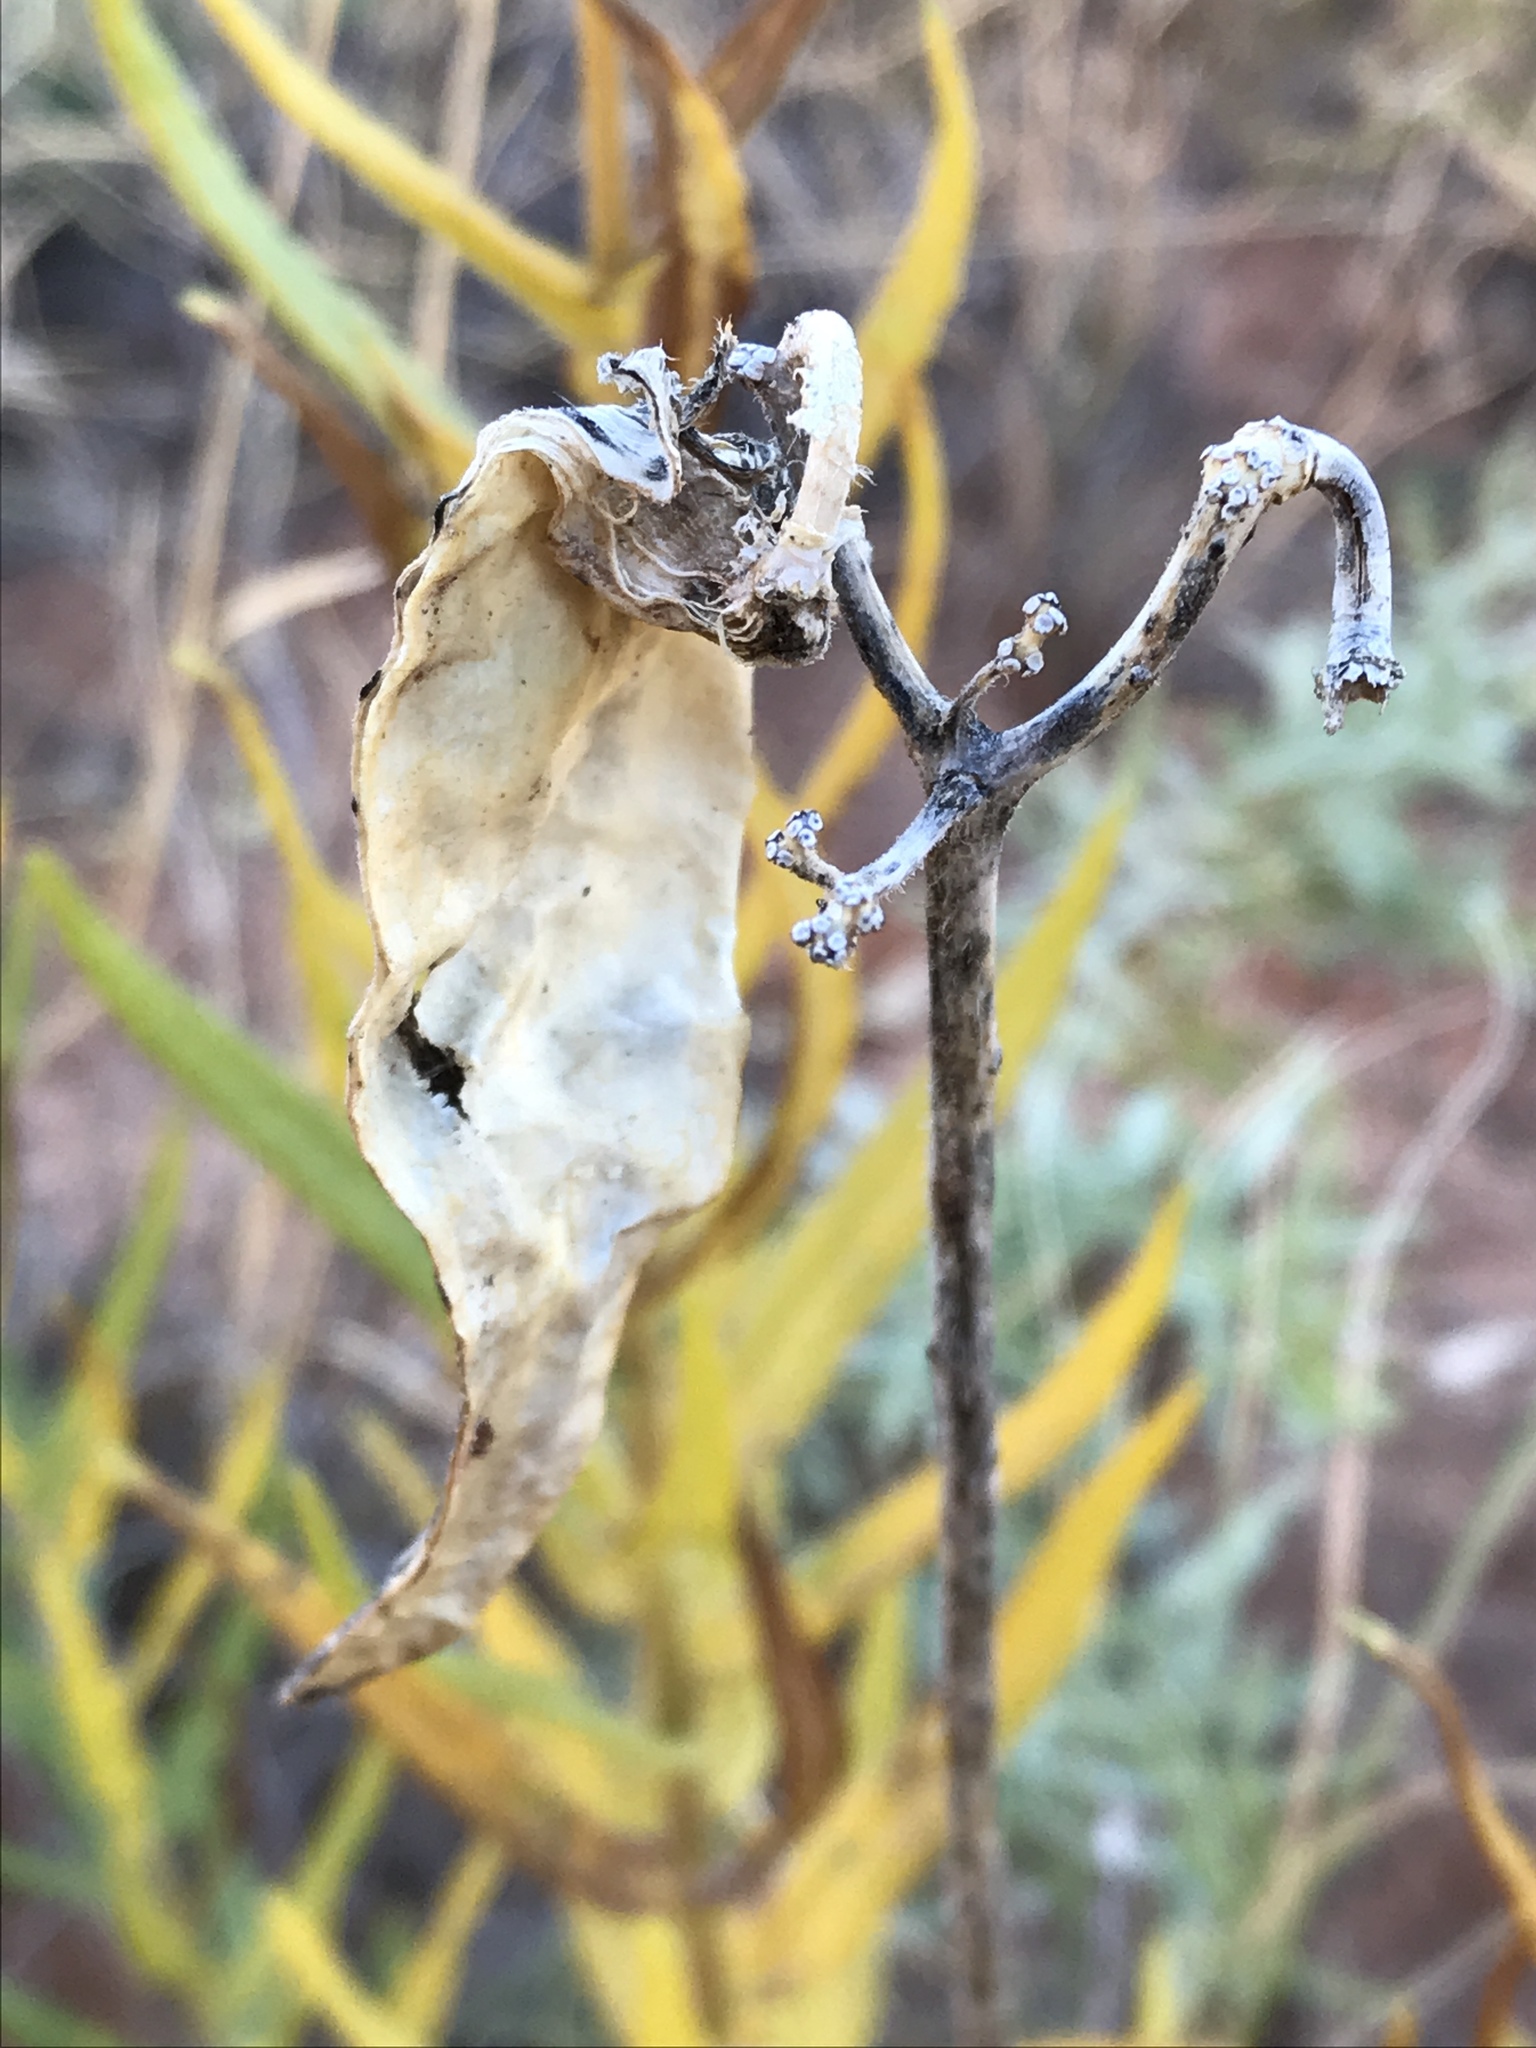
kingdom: Plantae
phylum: Tracheophyta
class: Magnoliopsida
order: Gentianales
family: Apocynaceae
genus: Asclepias
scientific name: Asclepias tuberosa
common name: Butterfly milkweed
